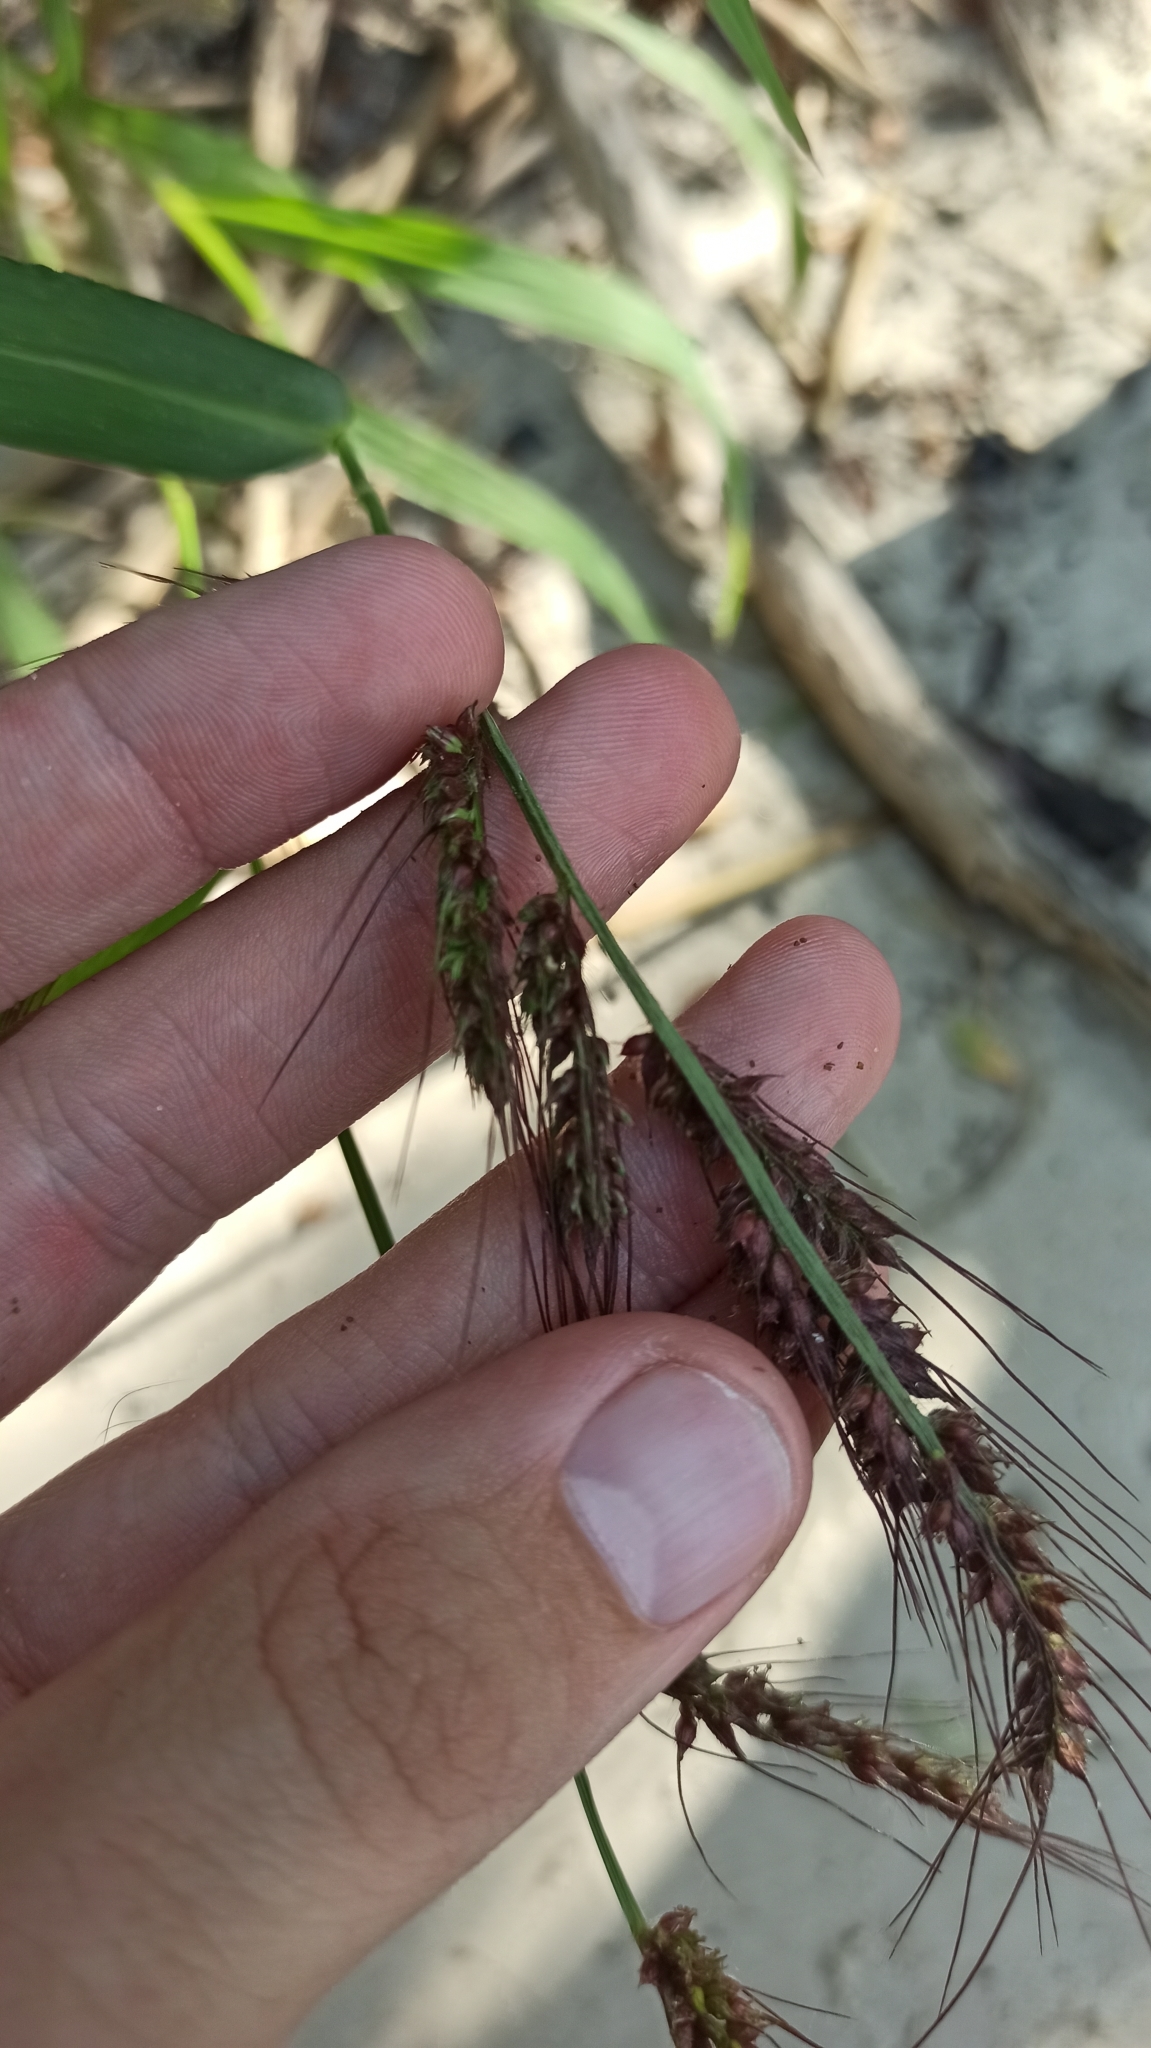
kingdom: Plantae
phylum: Tracheophyta
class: Liliopsida
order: Poales
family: Poaceae
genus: Echinochloa
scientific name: Echinochloa crus-galli
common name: Cockspur
